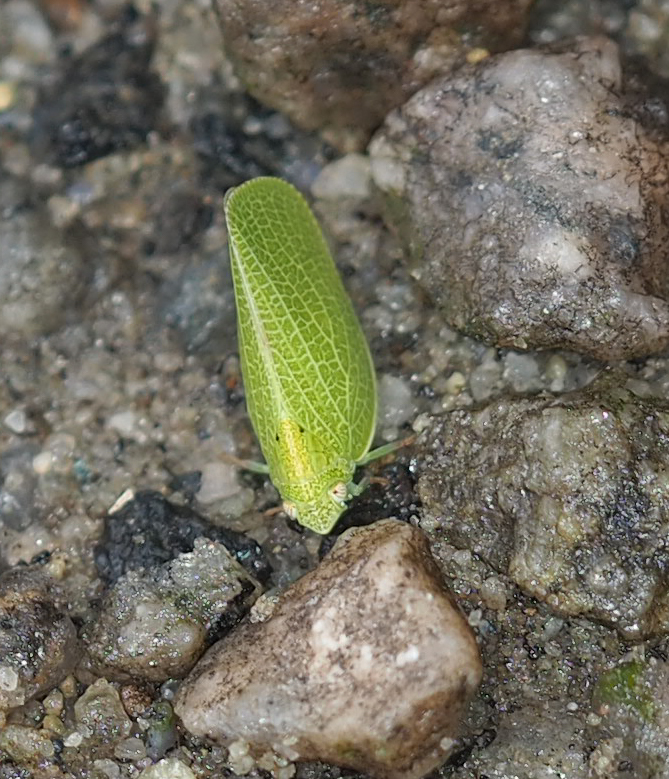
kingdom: Animalia
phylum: Arthropoda
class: Insecta
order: Hemiptera
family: Acanaloniidae
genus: Acanalonia
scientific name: Acanalonia conica
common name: Green cone-headed planthopper
